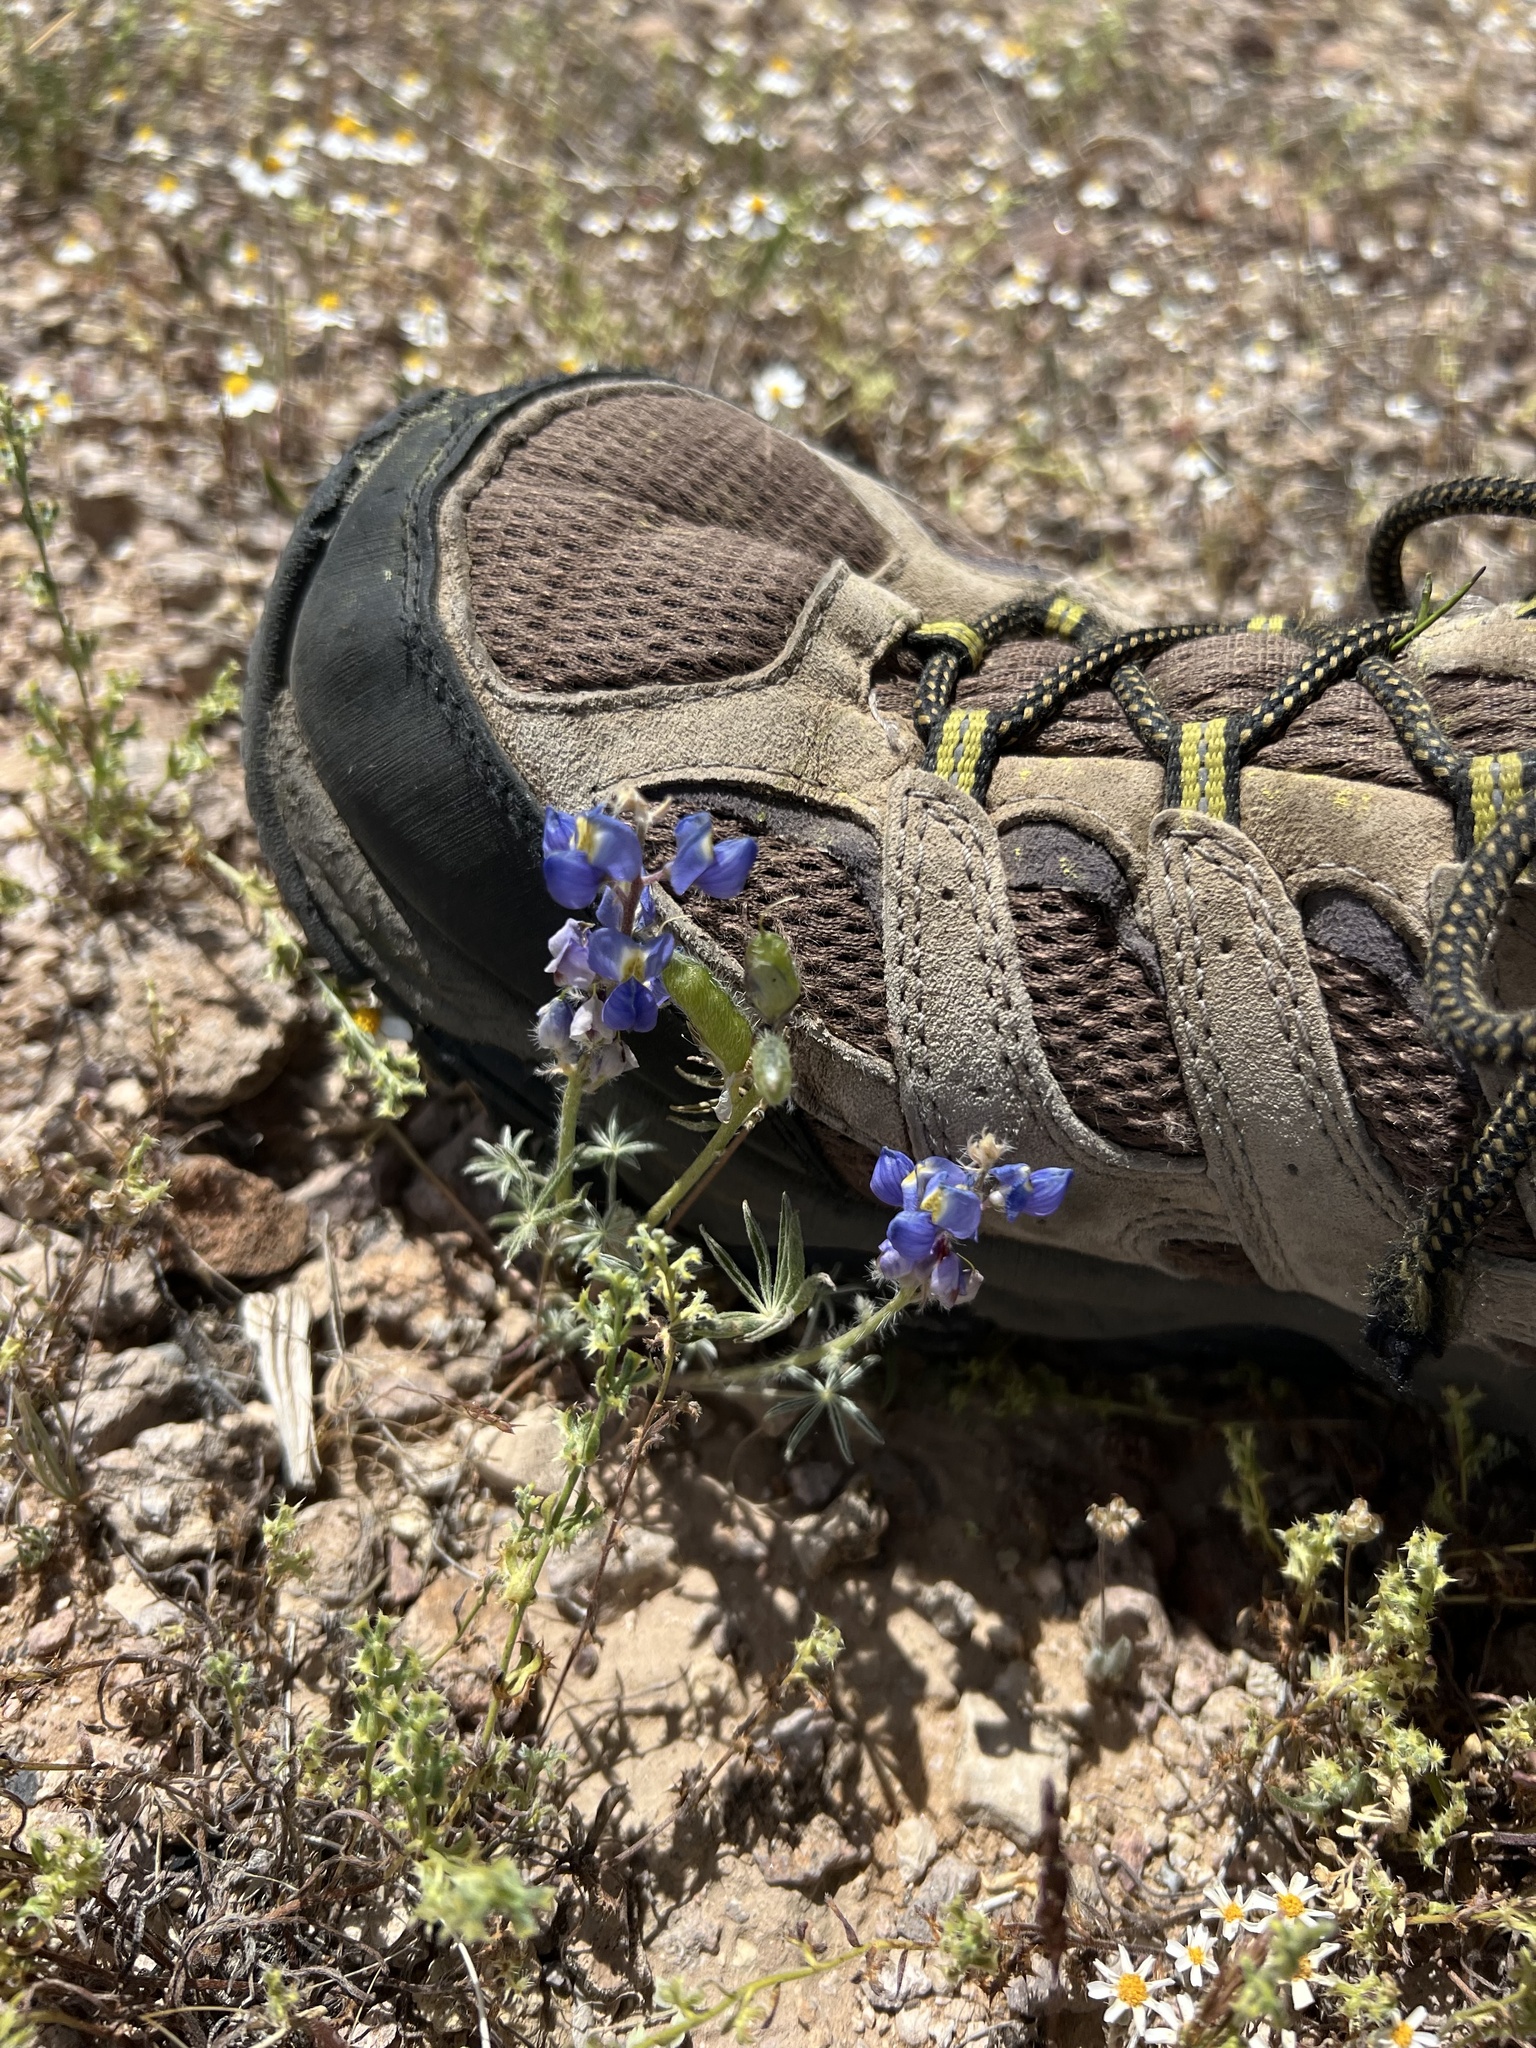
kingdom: Plantae
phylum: Tracheophyta
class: Magnoliopsida
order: Fabales
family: Fabaceae
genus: Lupinus
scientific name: Lupinus sparsiflorus
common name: Coulter's lupine
